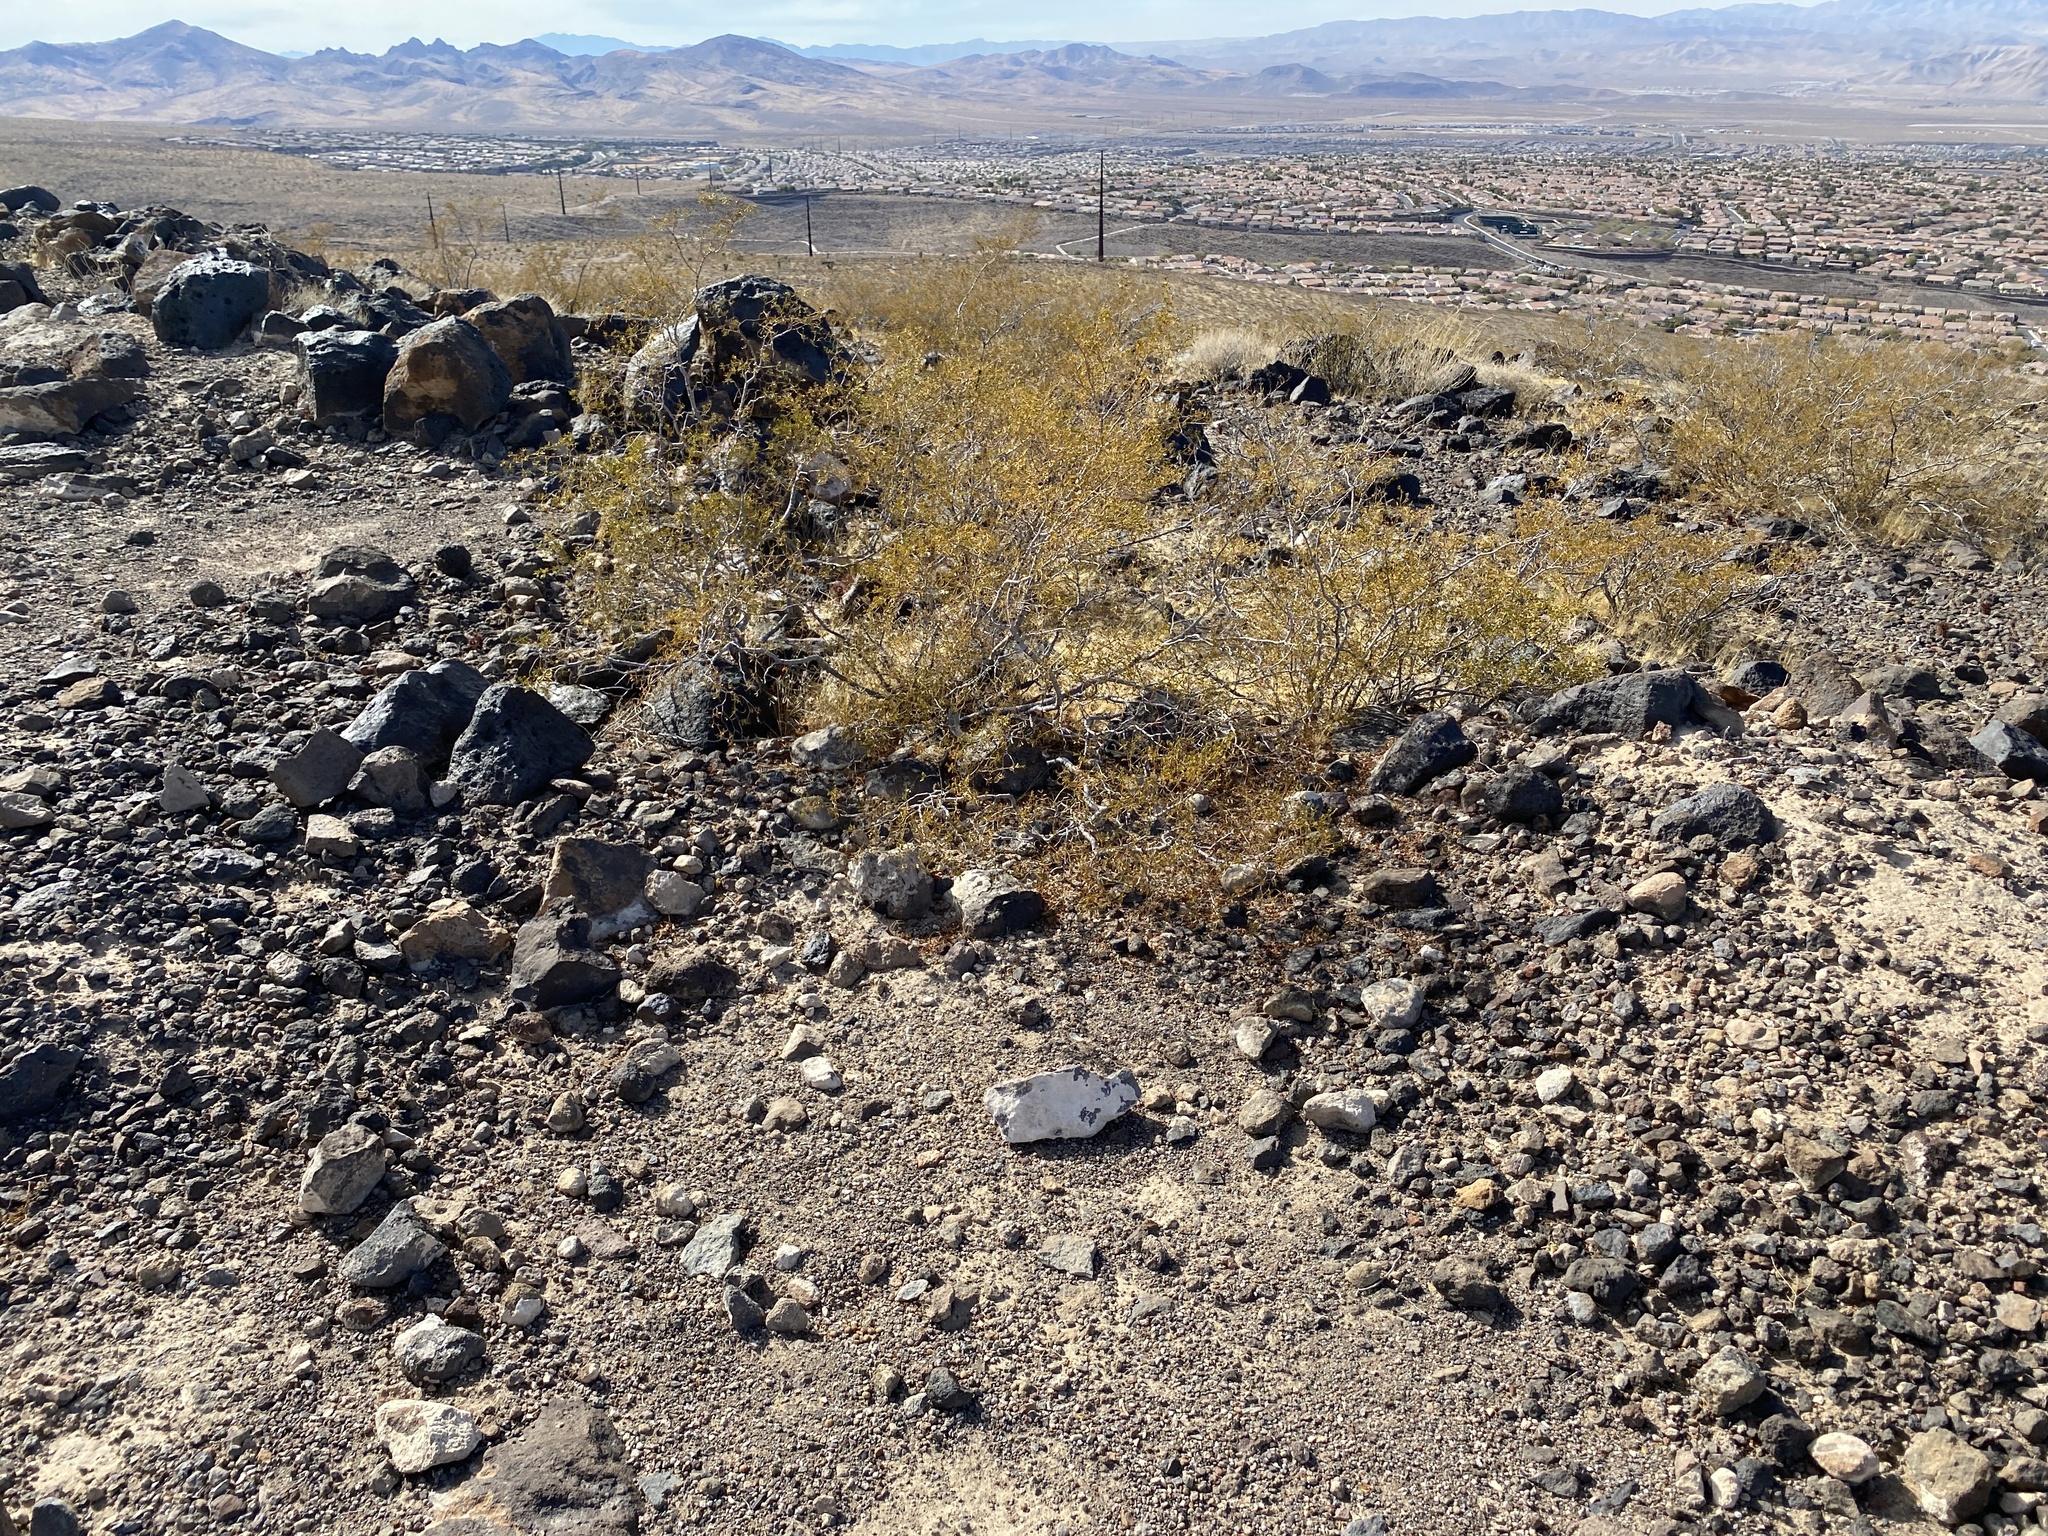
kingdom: Plantae
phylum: Tracheophyta
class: Magnoliopsida
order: Zygophyllales
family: Zygophyllaceae
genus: Larrea
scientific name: Larrea tridentata
